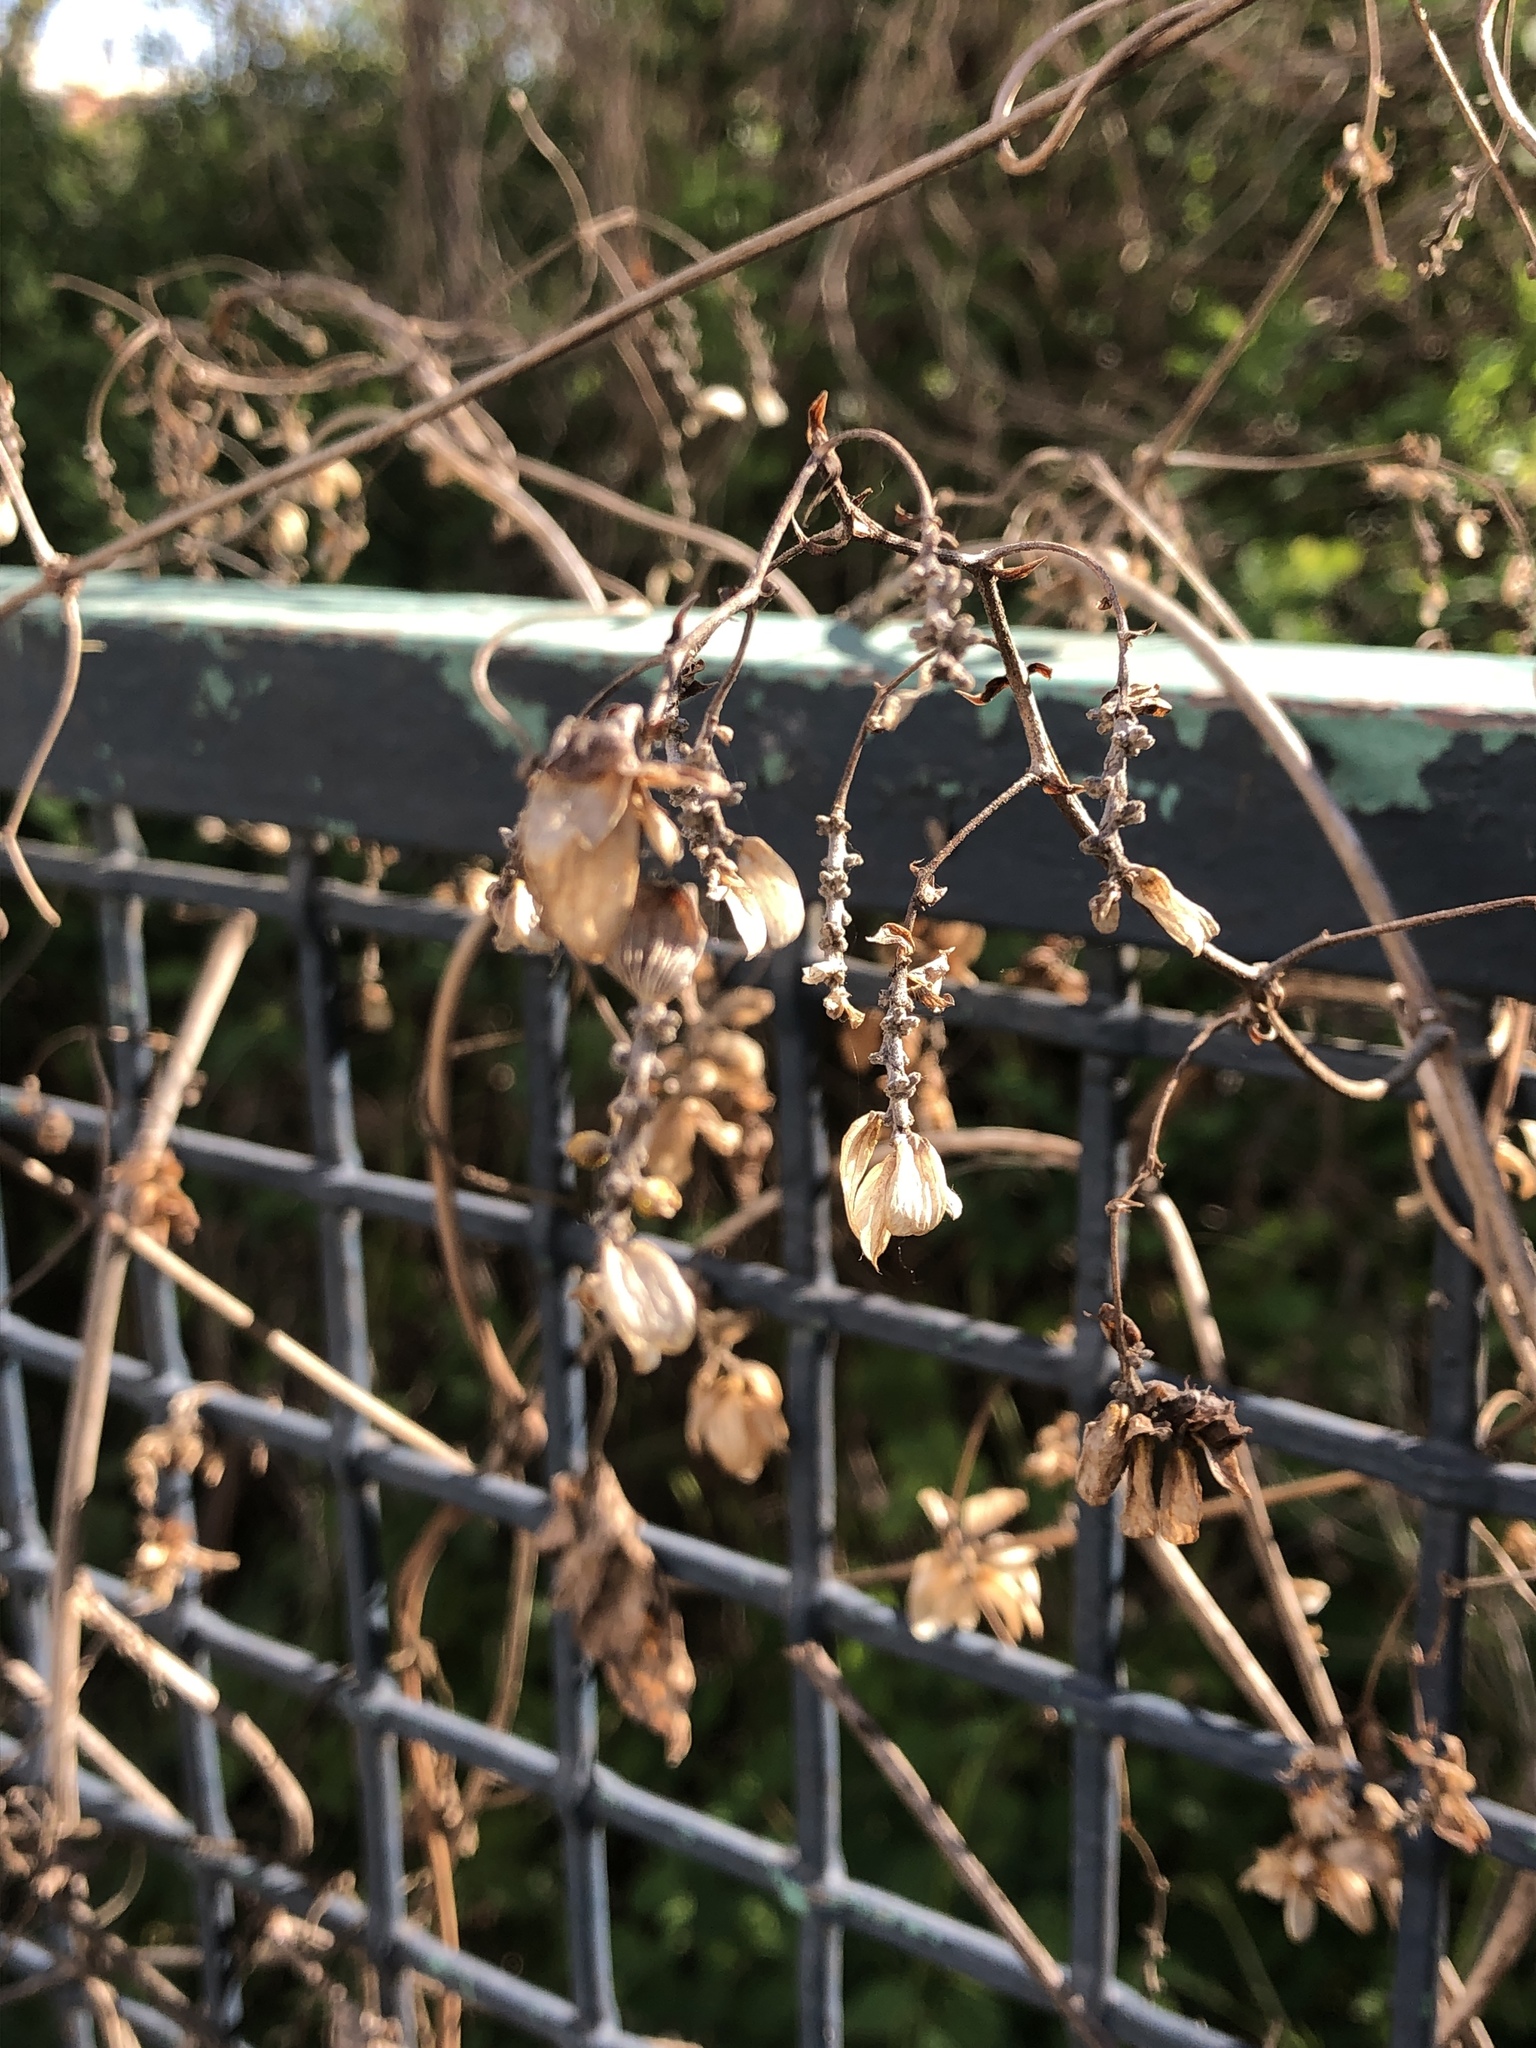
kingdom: Plantae
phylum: Tracheophyta
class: Magnoliopsida
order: Rosales
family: Cannabaceae
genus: Humulus
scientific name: Humulus lupulus
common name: Hop
